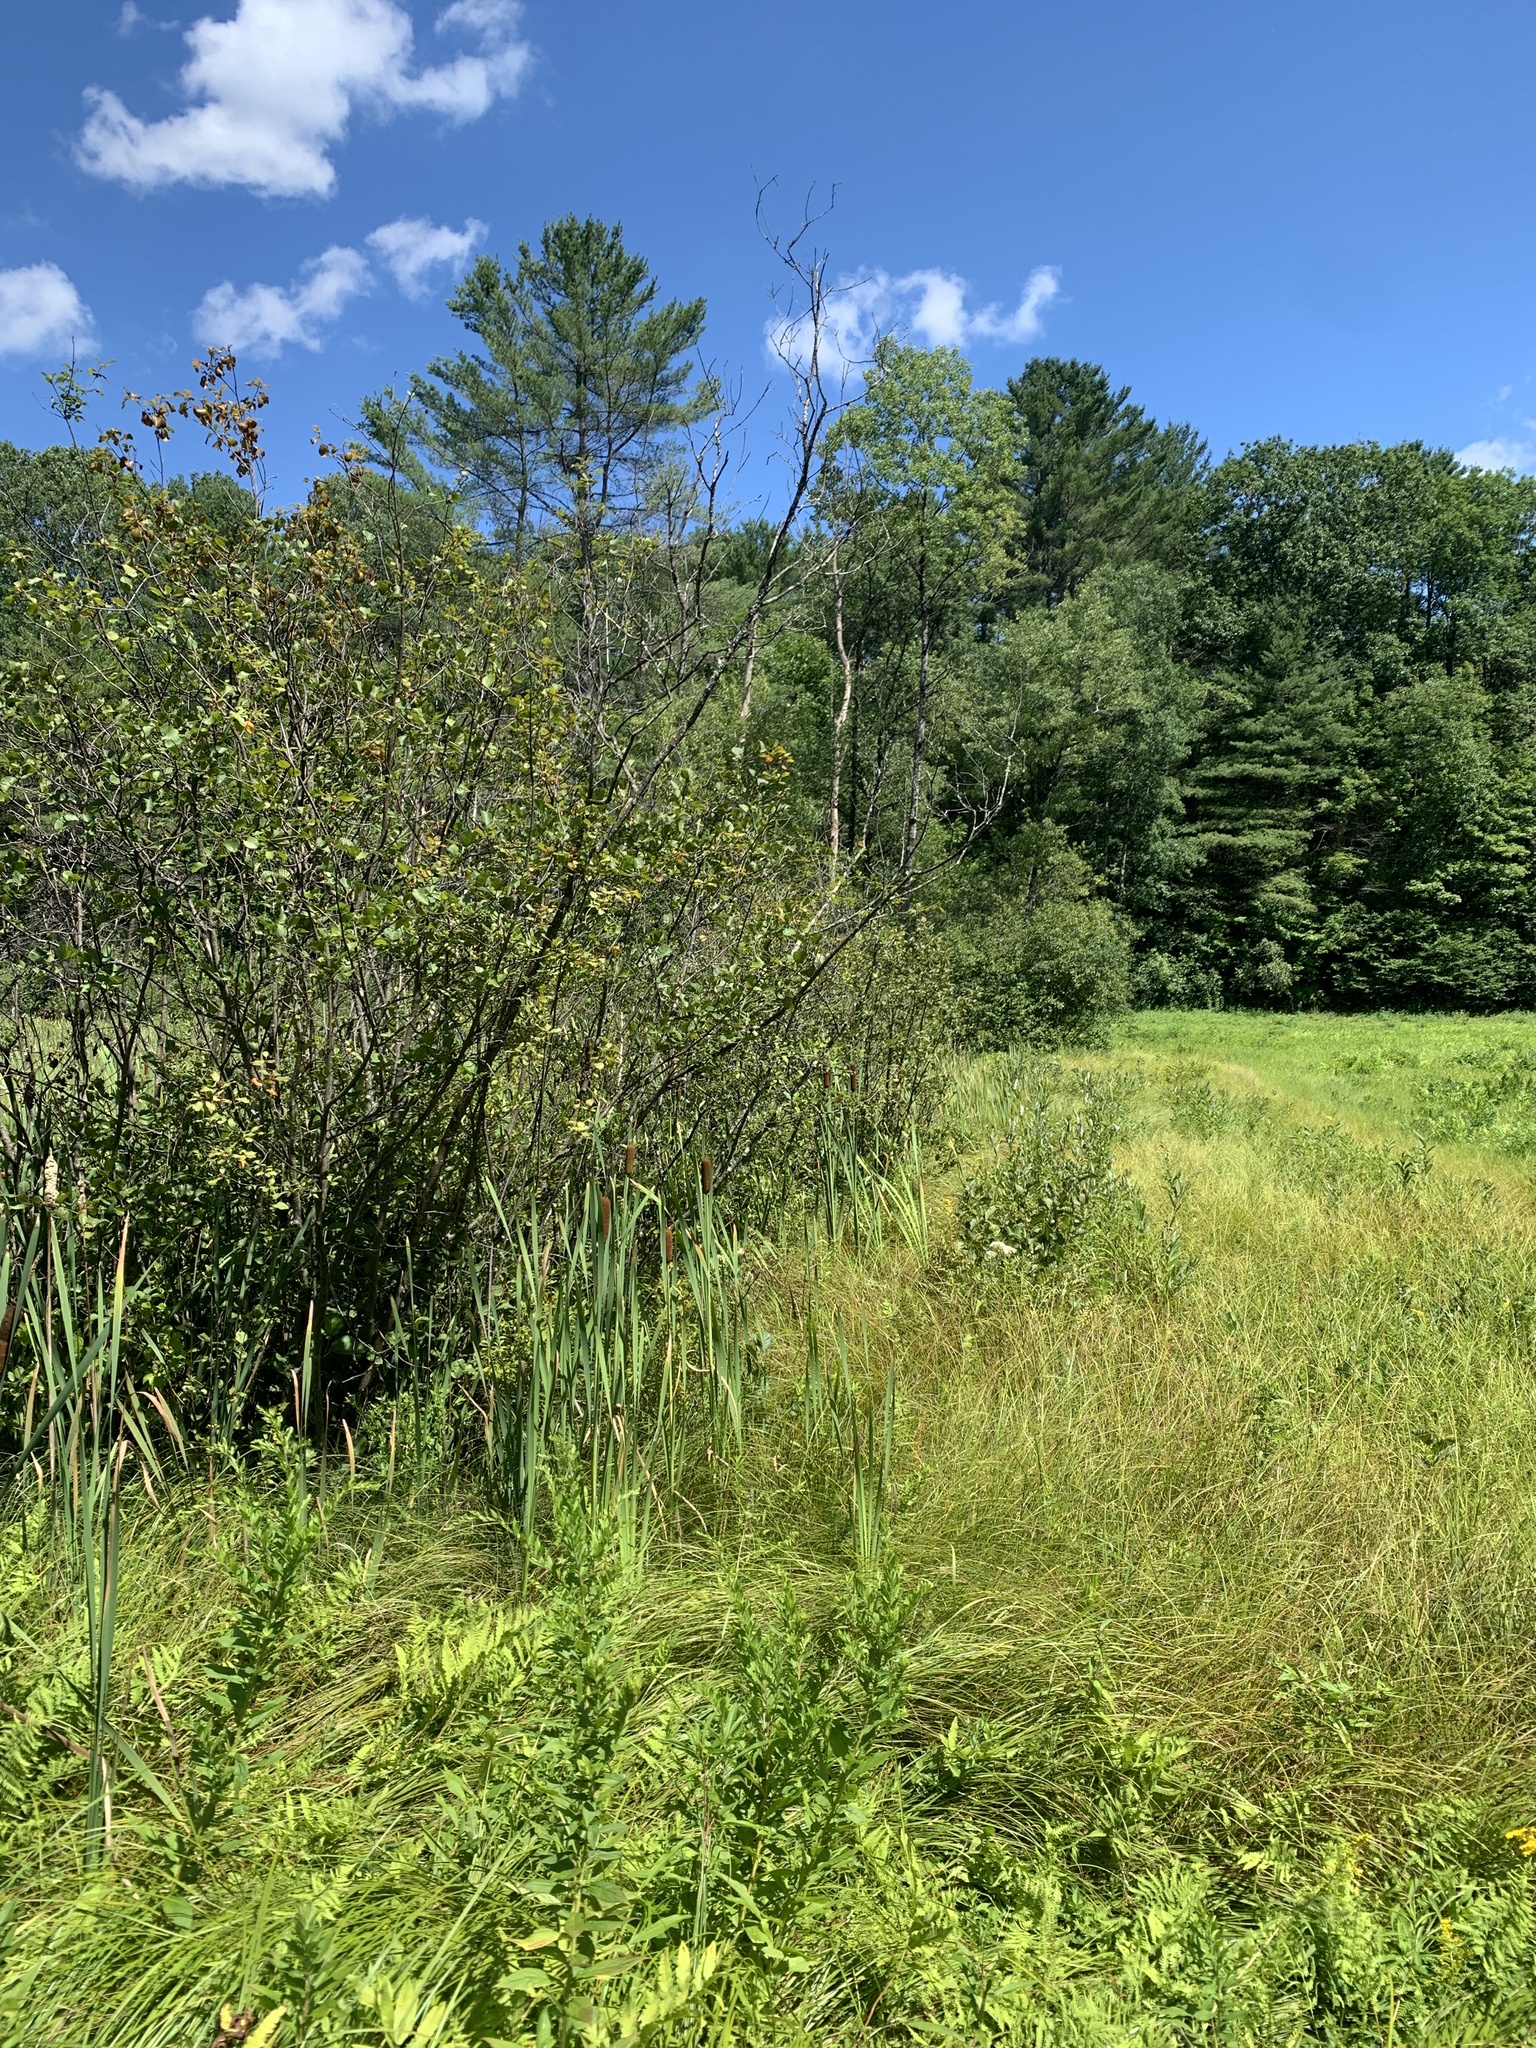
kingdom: Plantae
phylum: Tracheophyta
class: Magnoliopsida
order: Rosales
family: Rhamnaceae
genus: Frangula
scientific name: Frangula alnus
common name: Alder buckthorn
